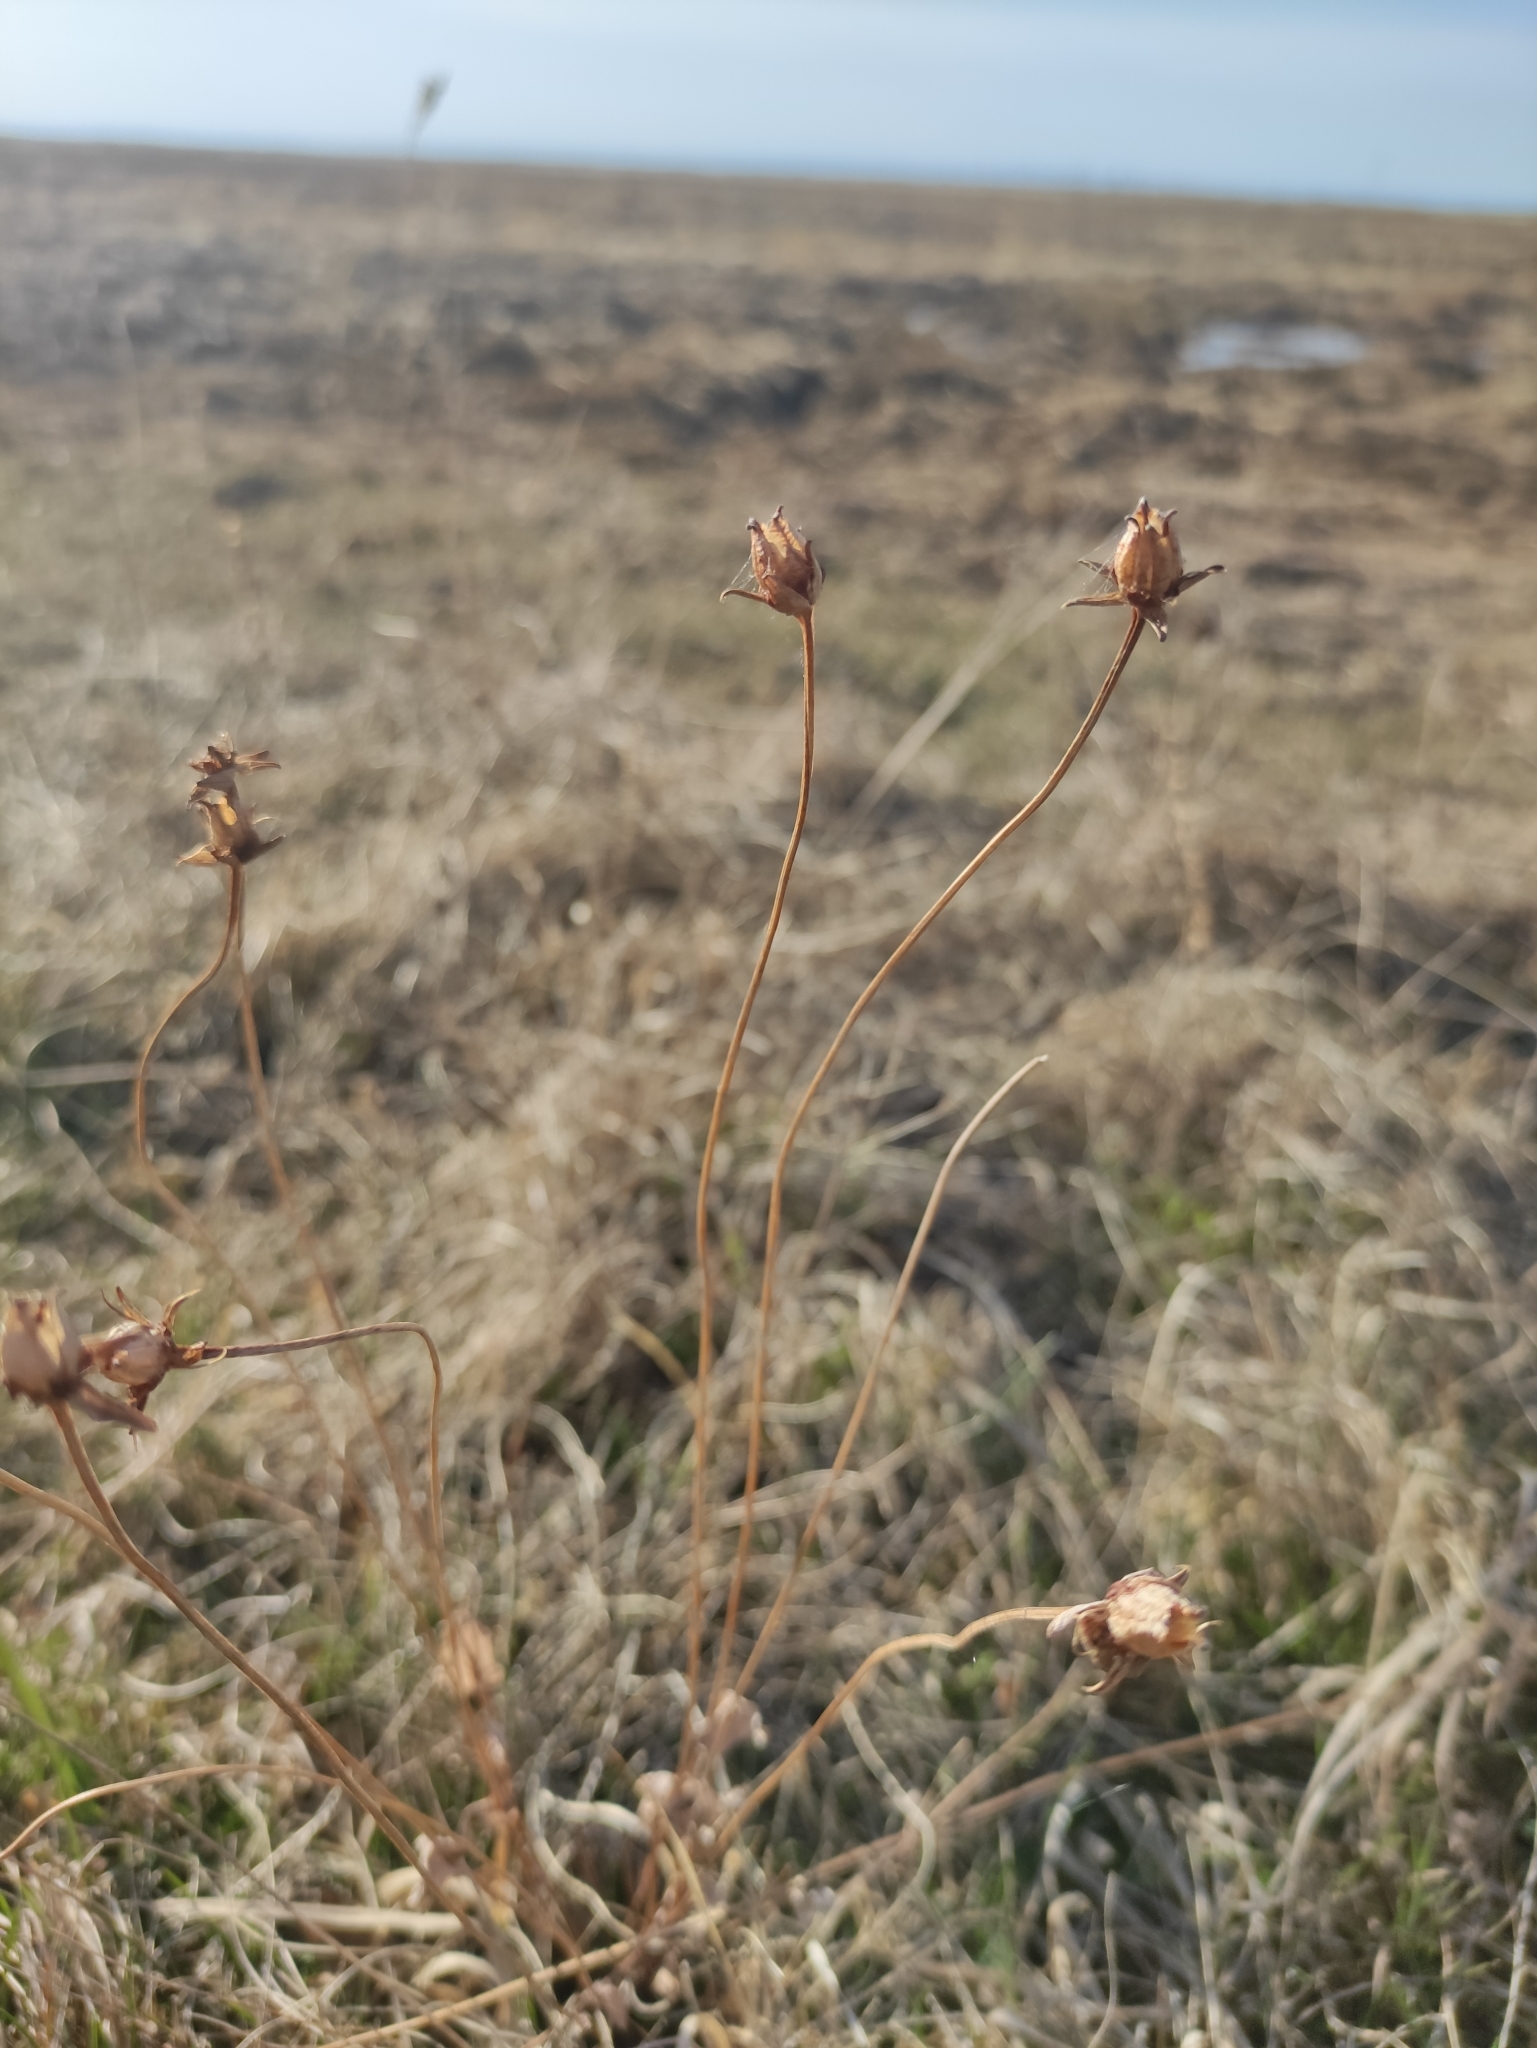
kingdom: Plantae
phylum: Tracheophyta
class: Magnoliopsida
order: Celastrales
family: Parnassiaceae
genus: Parnassia
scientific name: Parnassia palustris
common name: Grass-of-parnassus
